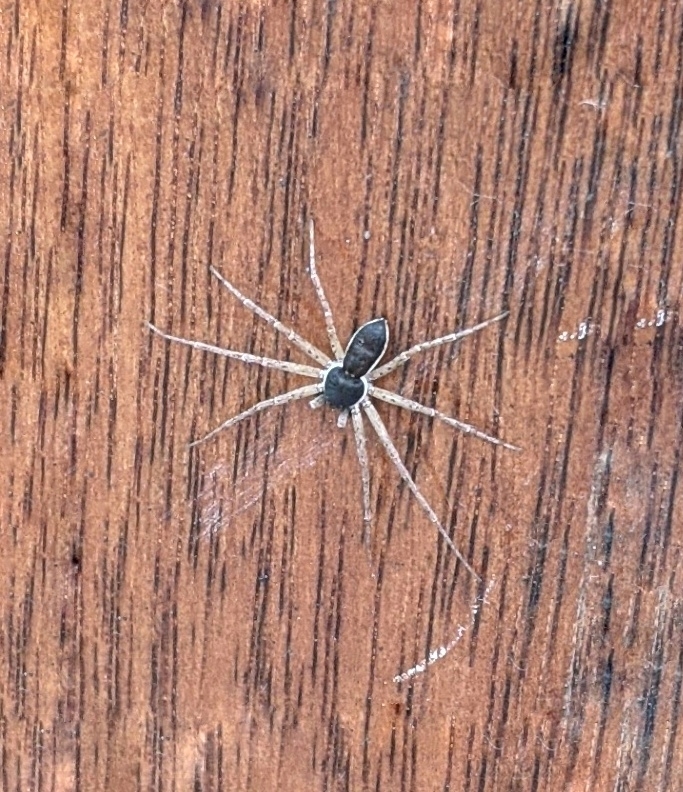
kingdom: Animalia
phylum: Arthropoda
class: Arachnida
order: Araneae
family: Philodromidae
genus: Philodromus
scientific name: Philodromus dispar
